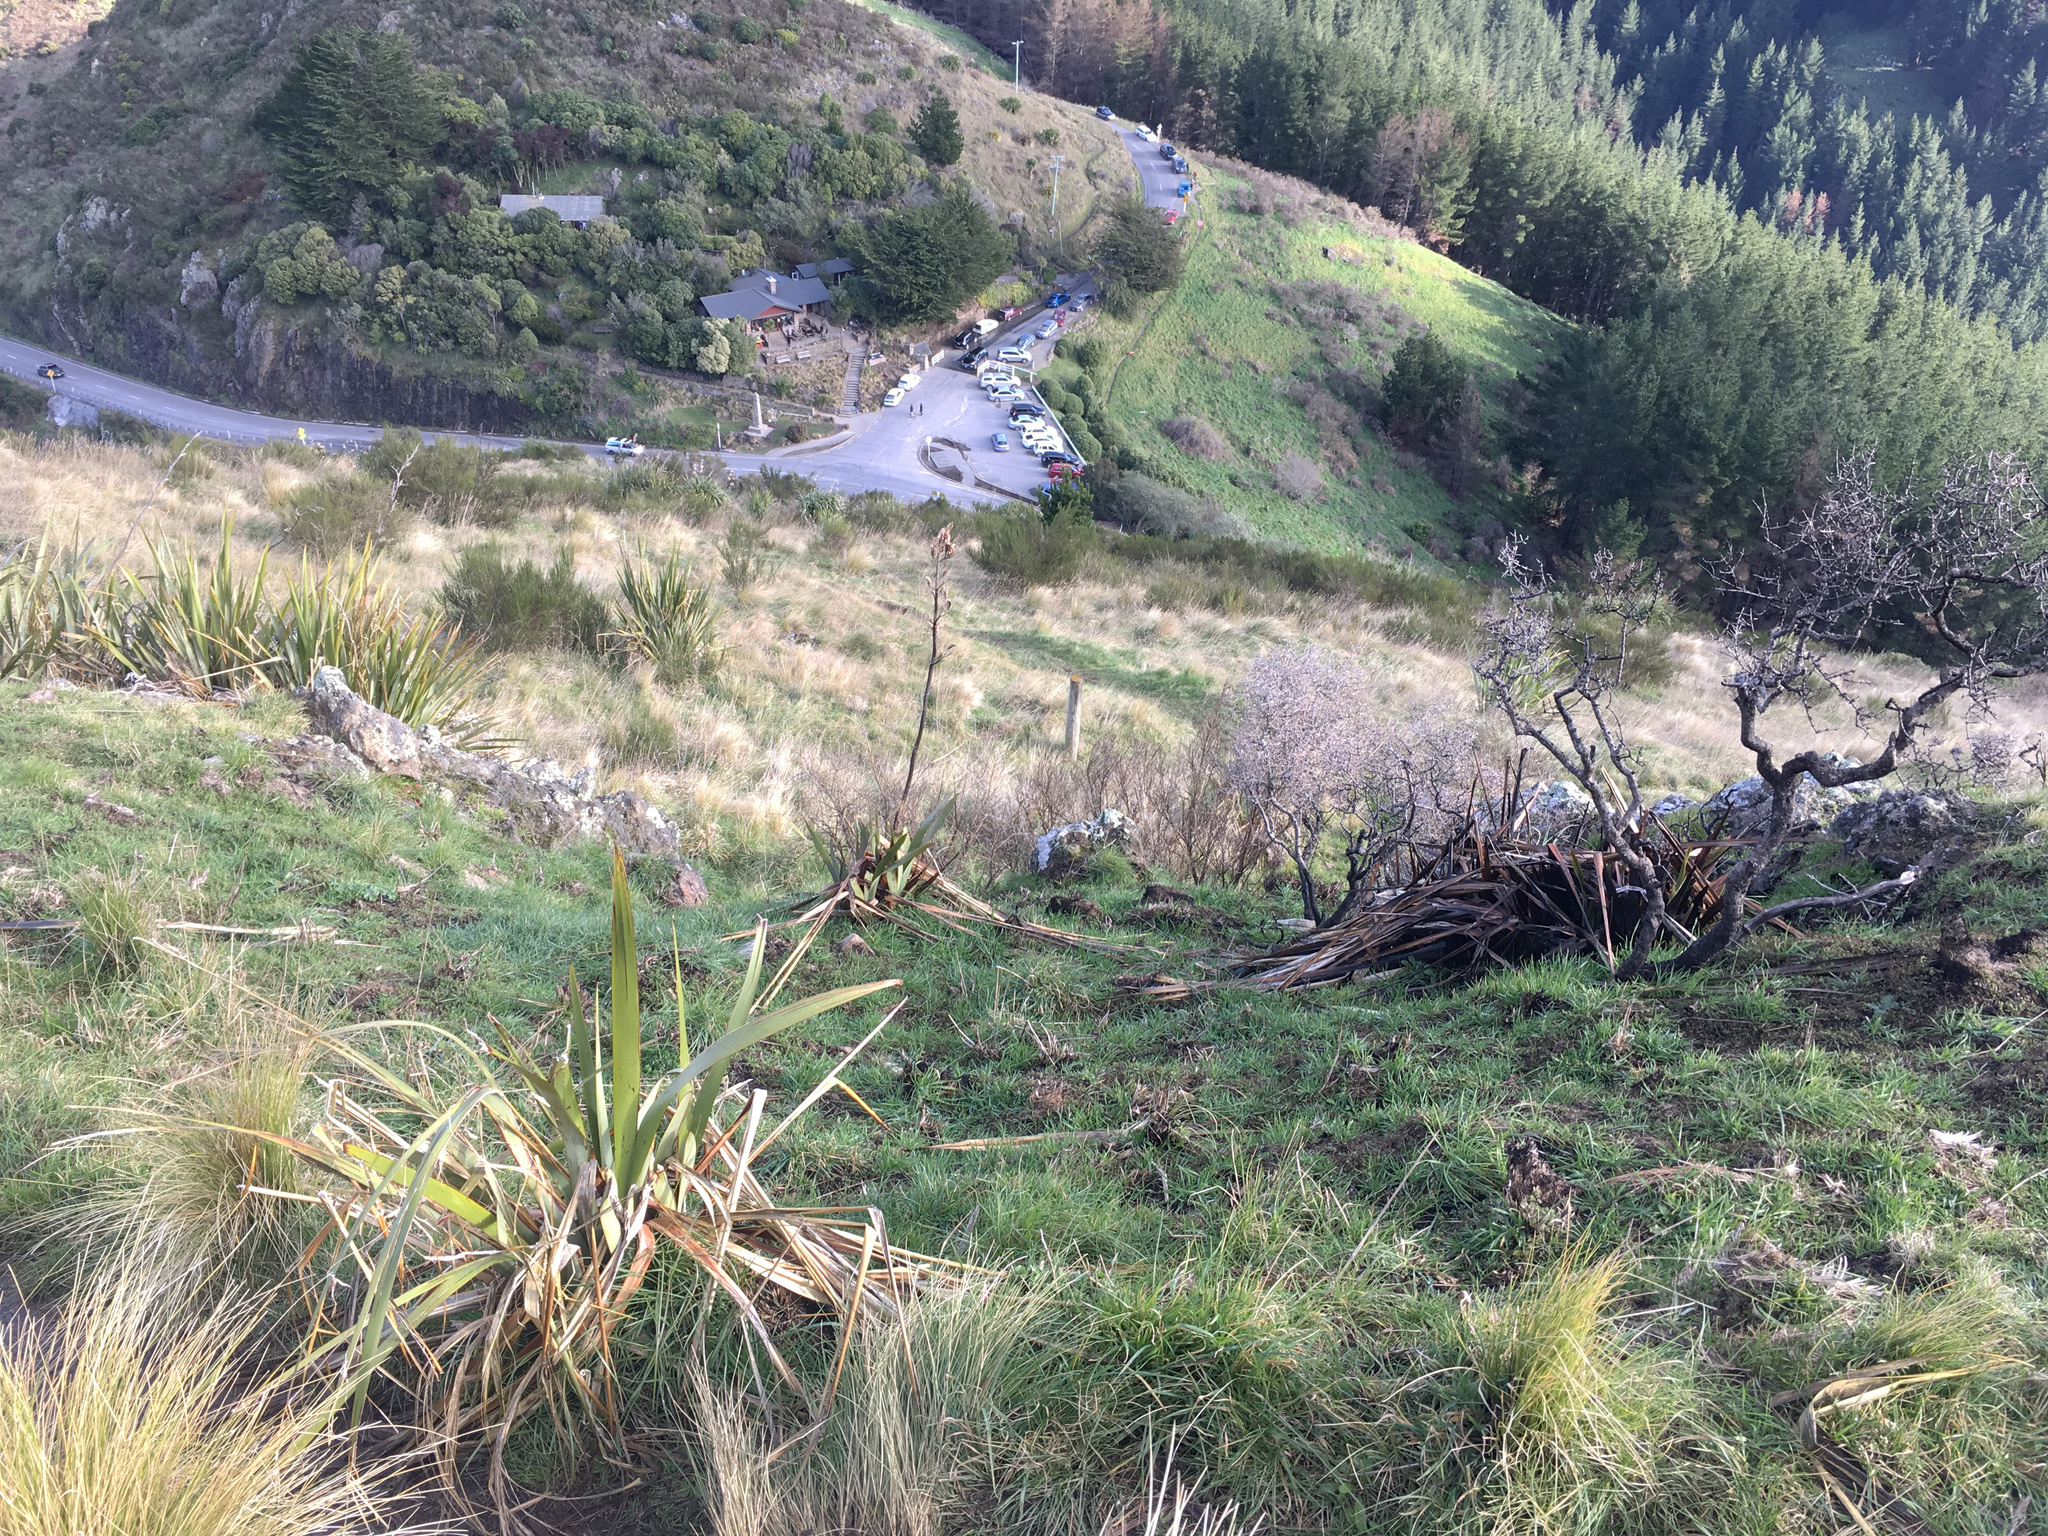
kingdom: Plantae
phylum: Tracheophyta
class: Liliopsida
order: Asparagales
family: Asphodelaceae
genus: Phormium
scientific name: Phormium tenax
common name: New zealand flax
